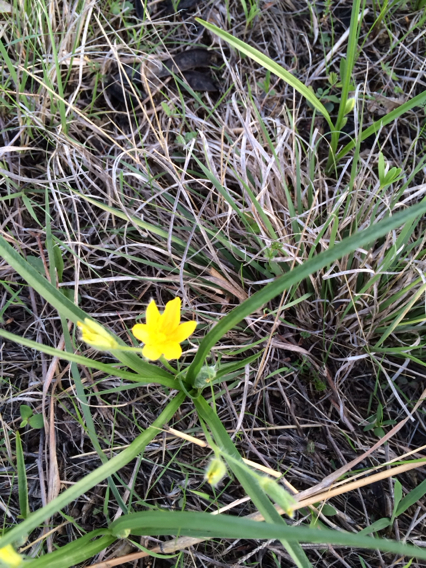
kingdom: Plantae
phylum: Tracheophyta
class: Liliopsida
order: Asparagales
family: Hypoxidaceae
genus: Hypoxis
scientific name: Hypoxis hirsuta
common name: Common goldstar
